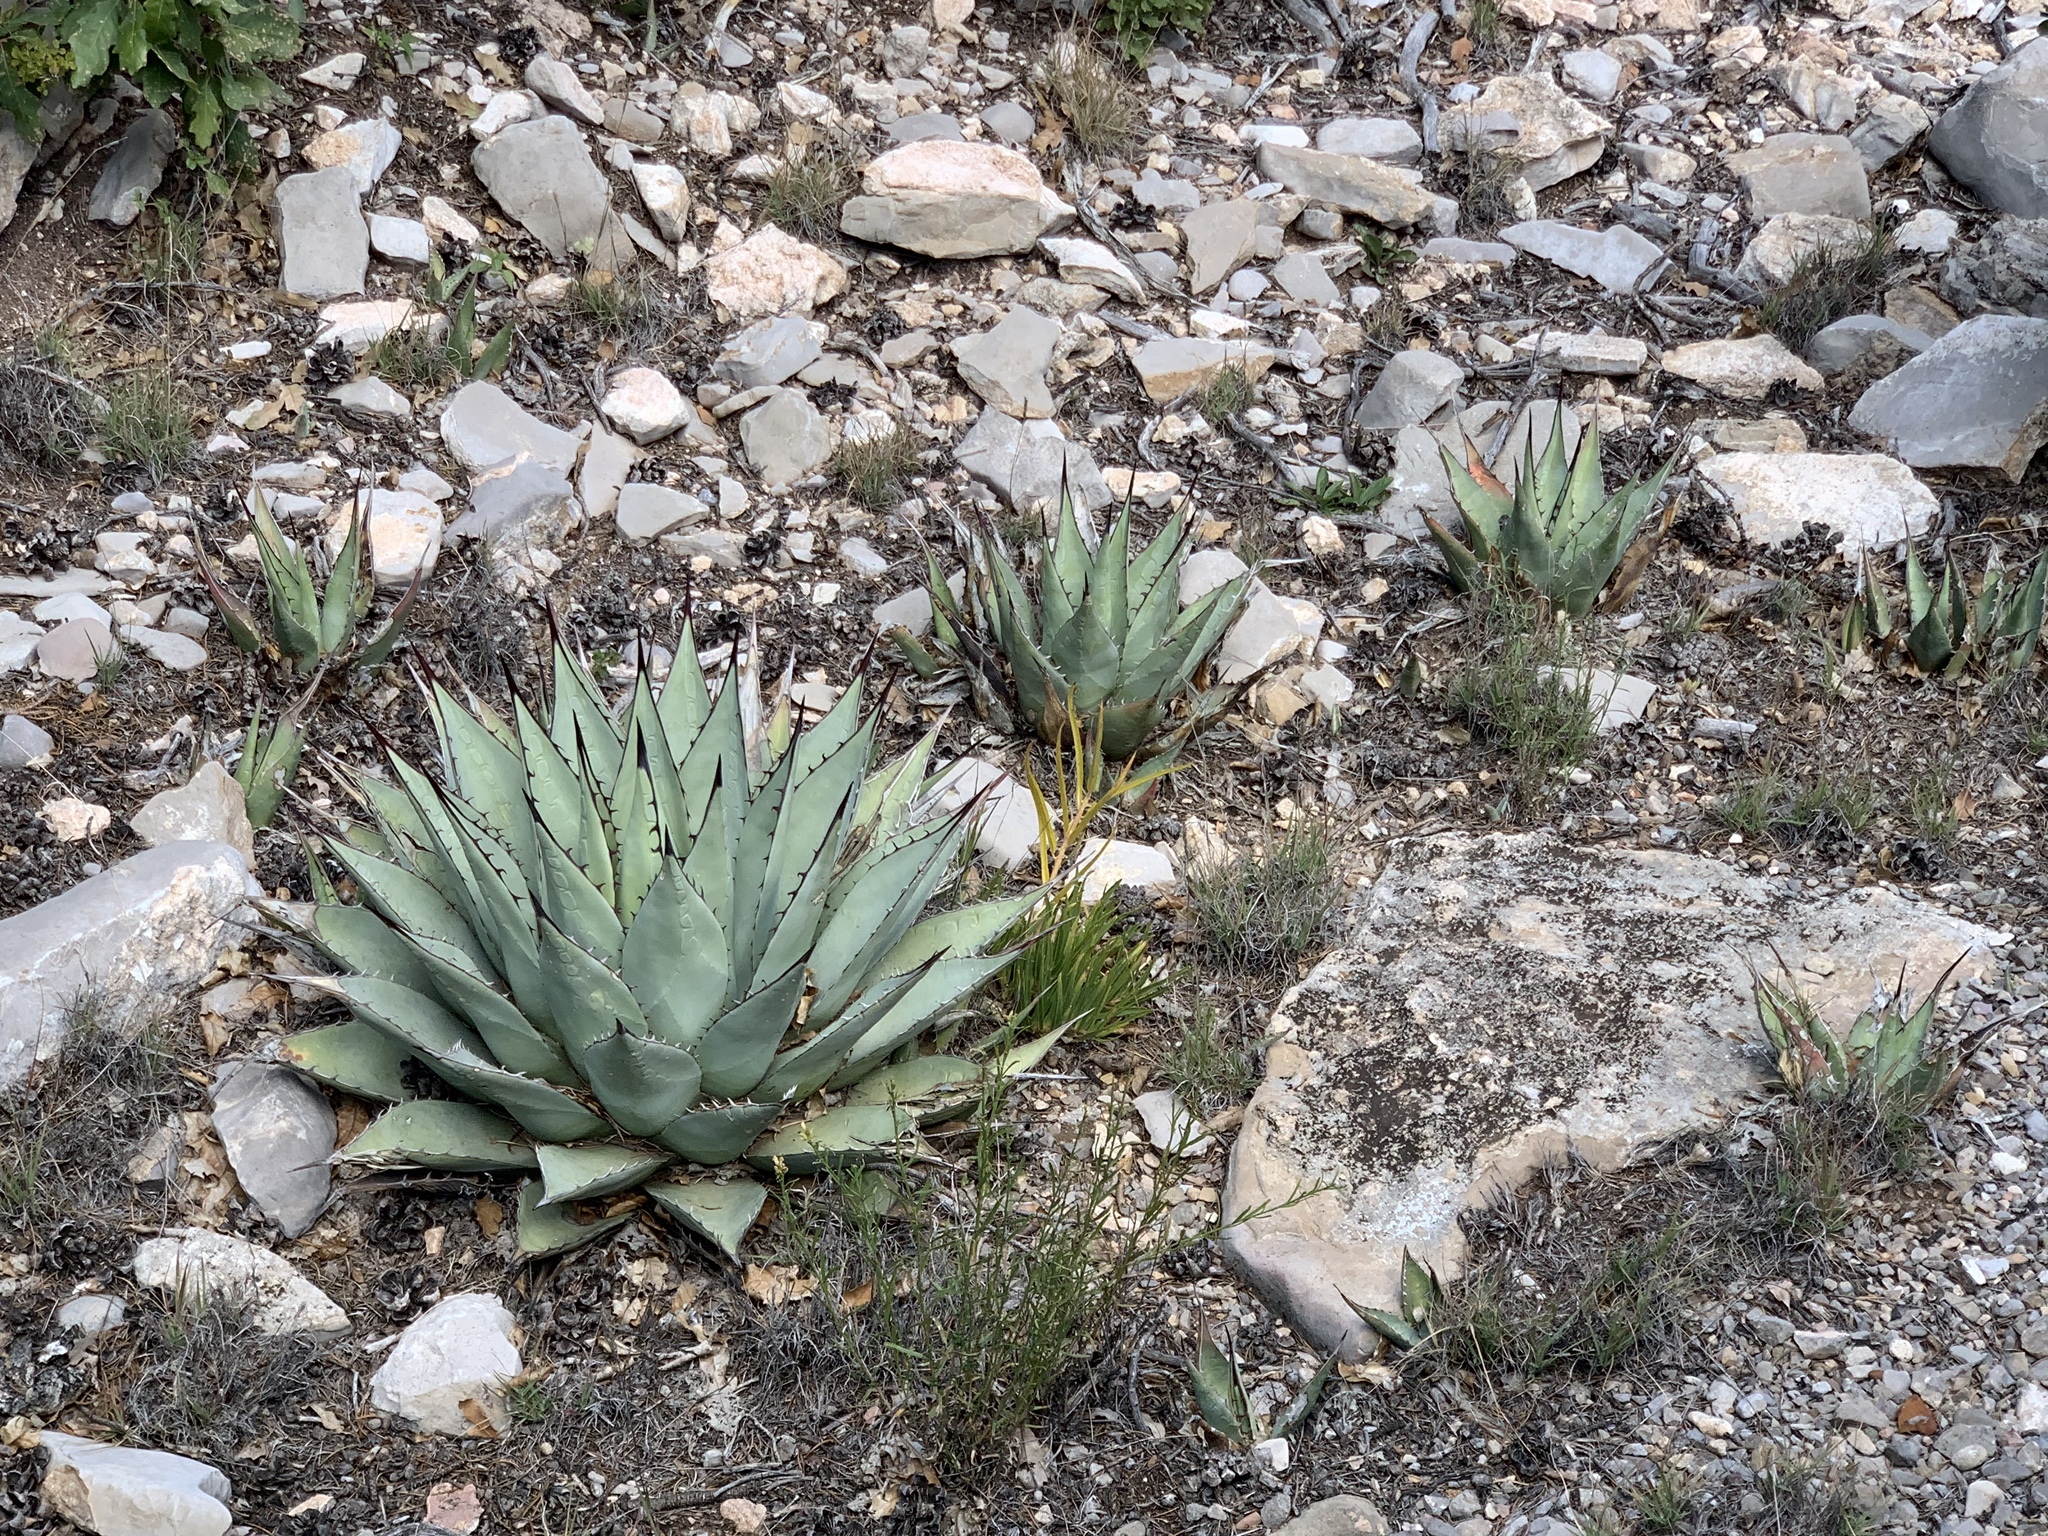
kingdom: Plantae
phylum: Tracheophyta
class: Liliopsida
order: Asparagales
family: Asparagaceae
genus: Agave
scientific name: Agave parryi
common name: Parry's agave
